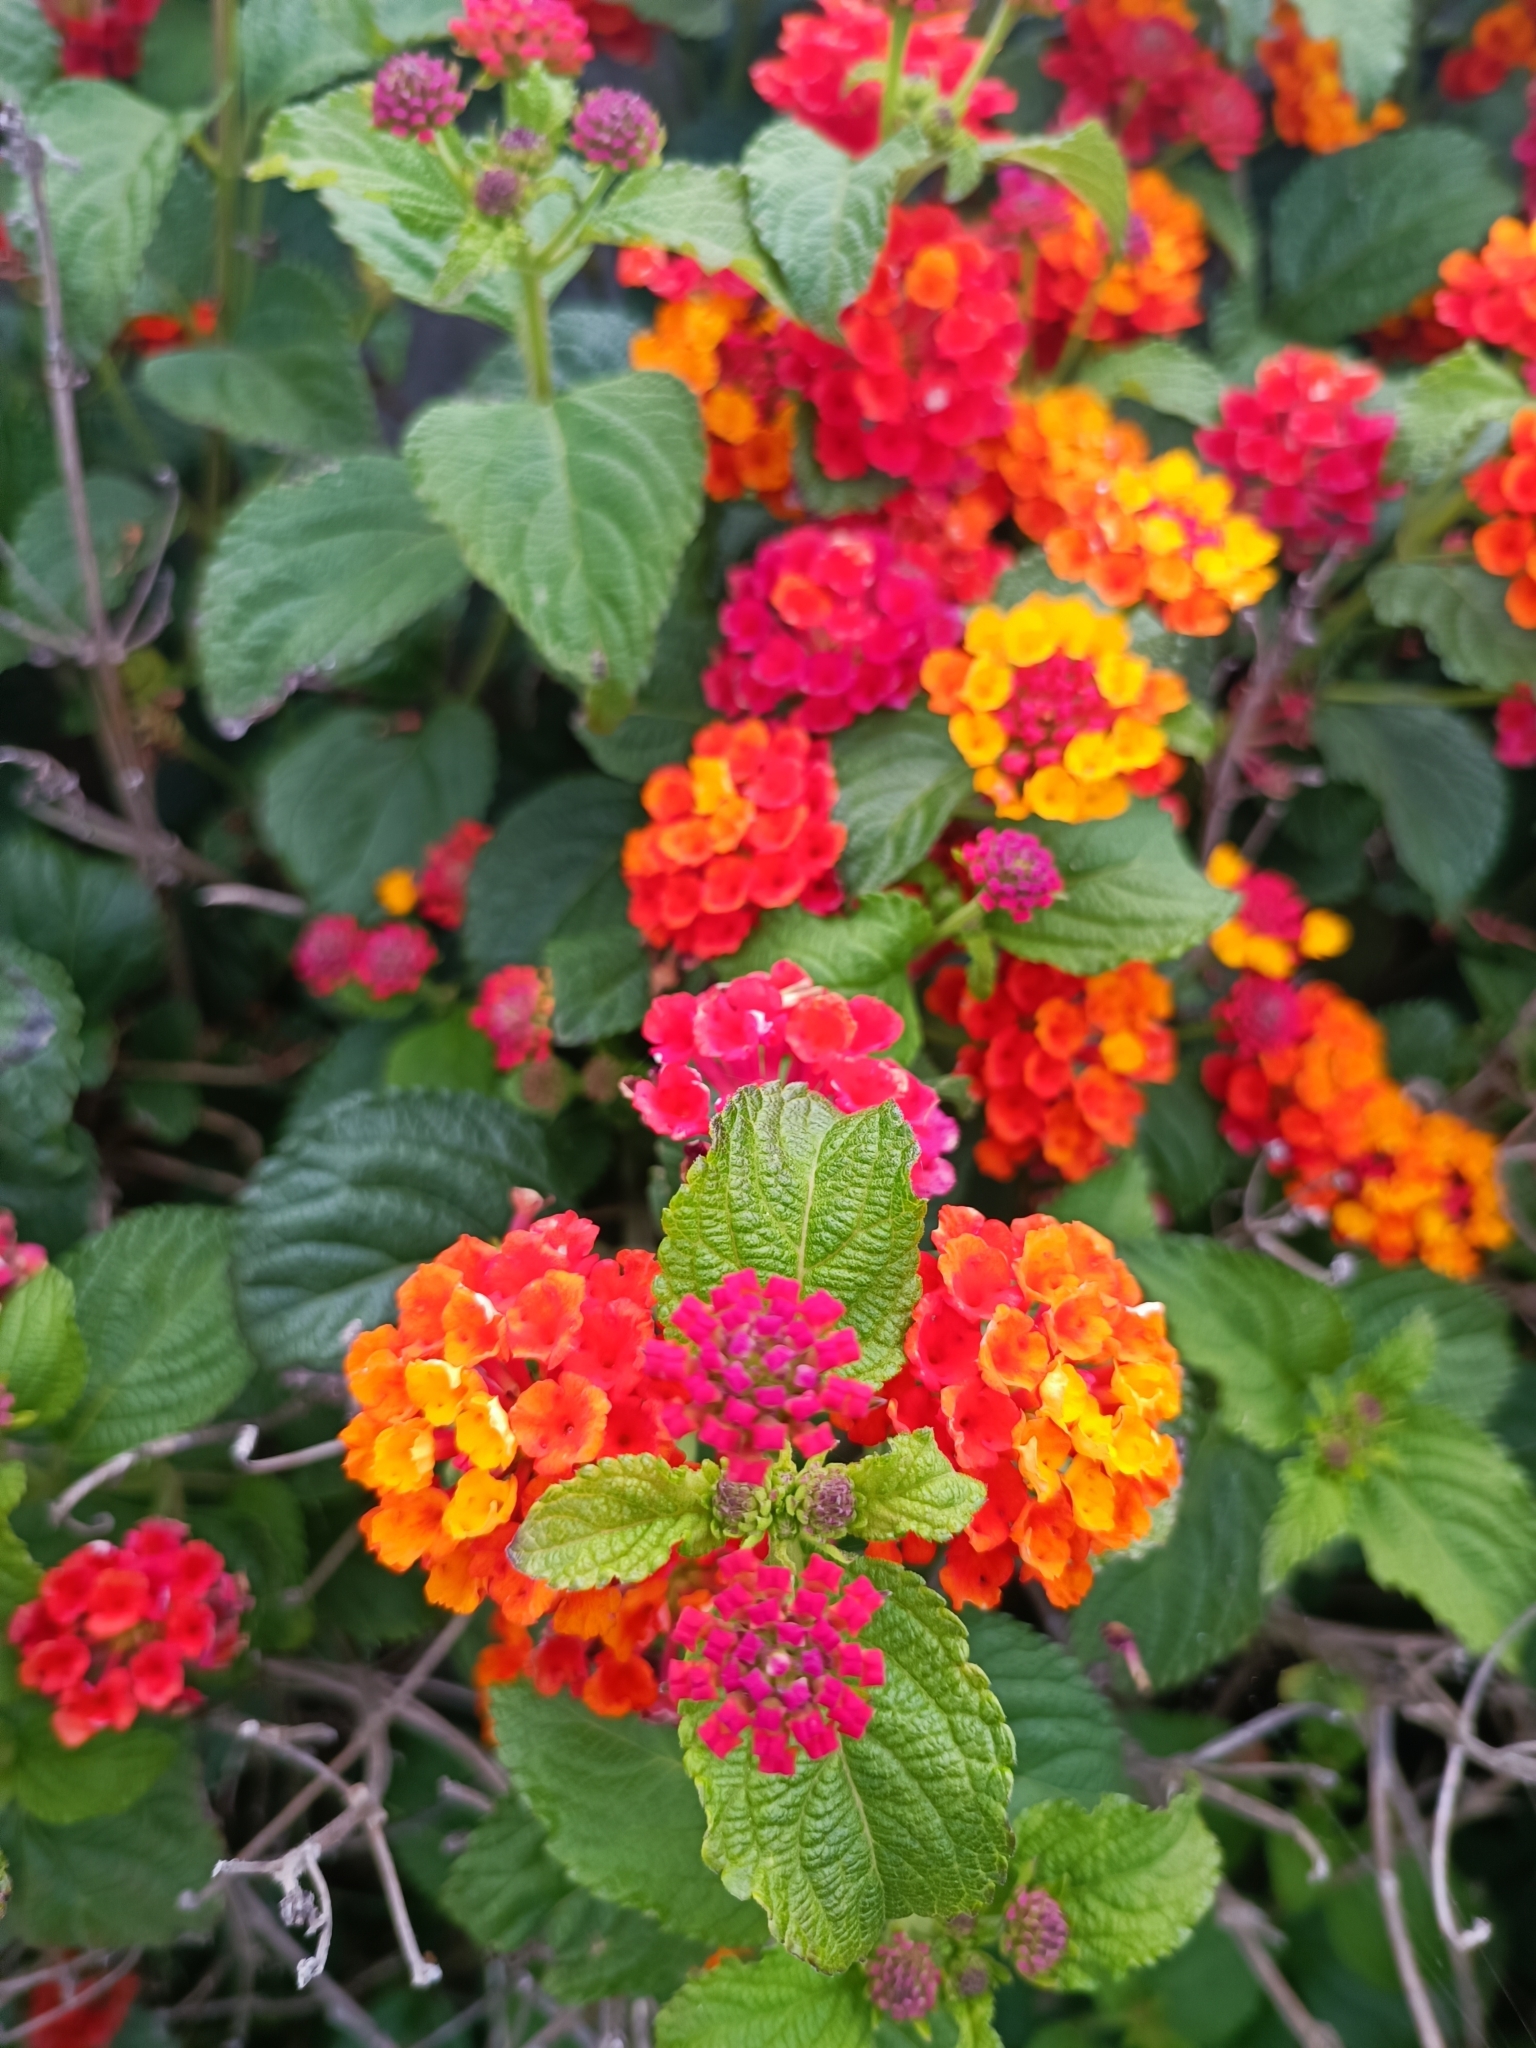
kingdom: Plantae
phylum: Tracheophyta
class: Magnoliopsida
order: Lamiales
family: Verbenaceae
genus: Lantana
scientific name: Lantana camara
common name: Lantana
